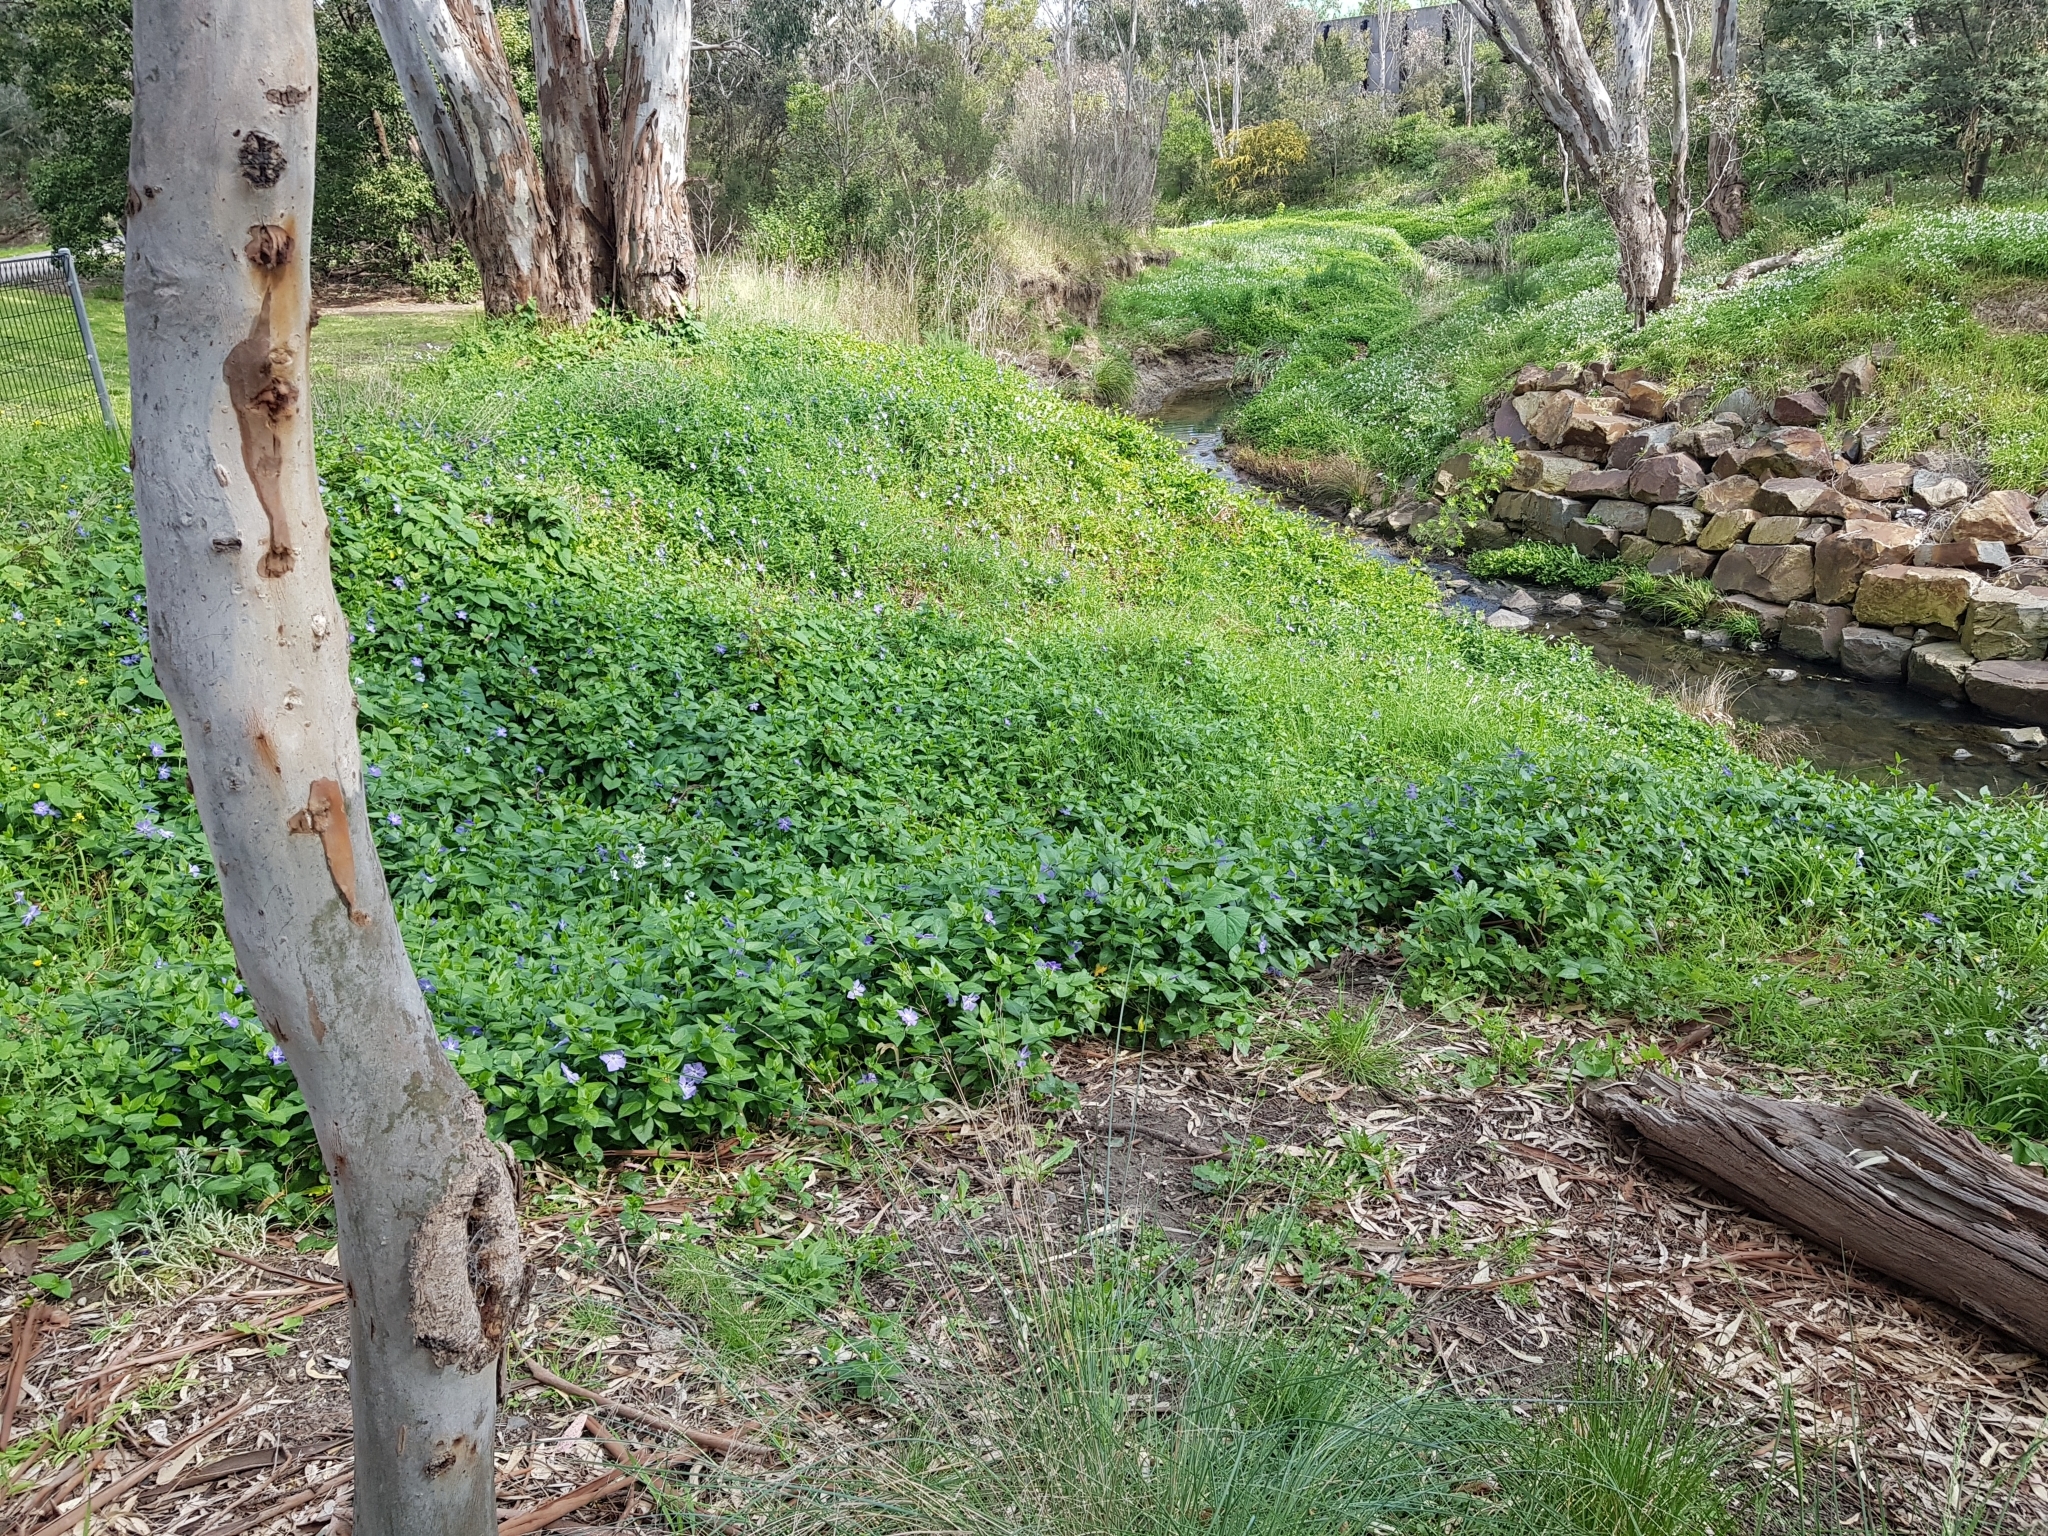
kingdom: Plantae
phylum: Tracheophyta
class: Magnoliopsida
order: Gentianales
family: Apocynaceae
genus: Vinca
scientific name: Vinca major
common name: Greater periwinkle
